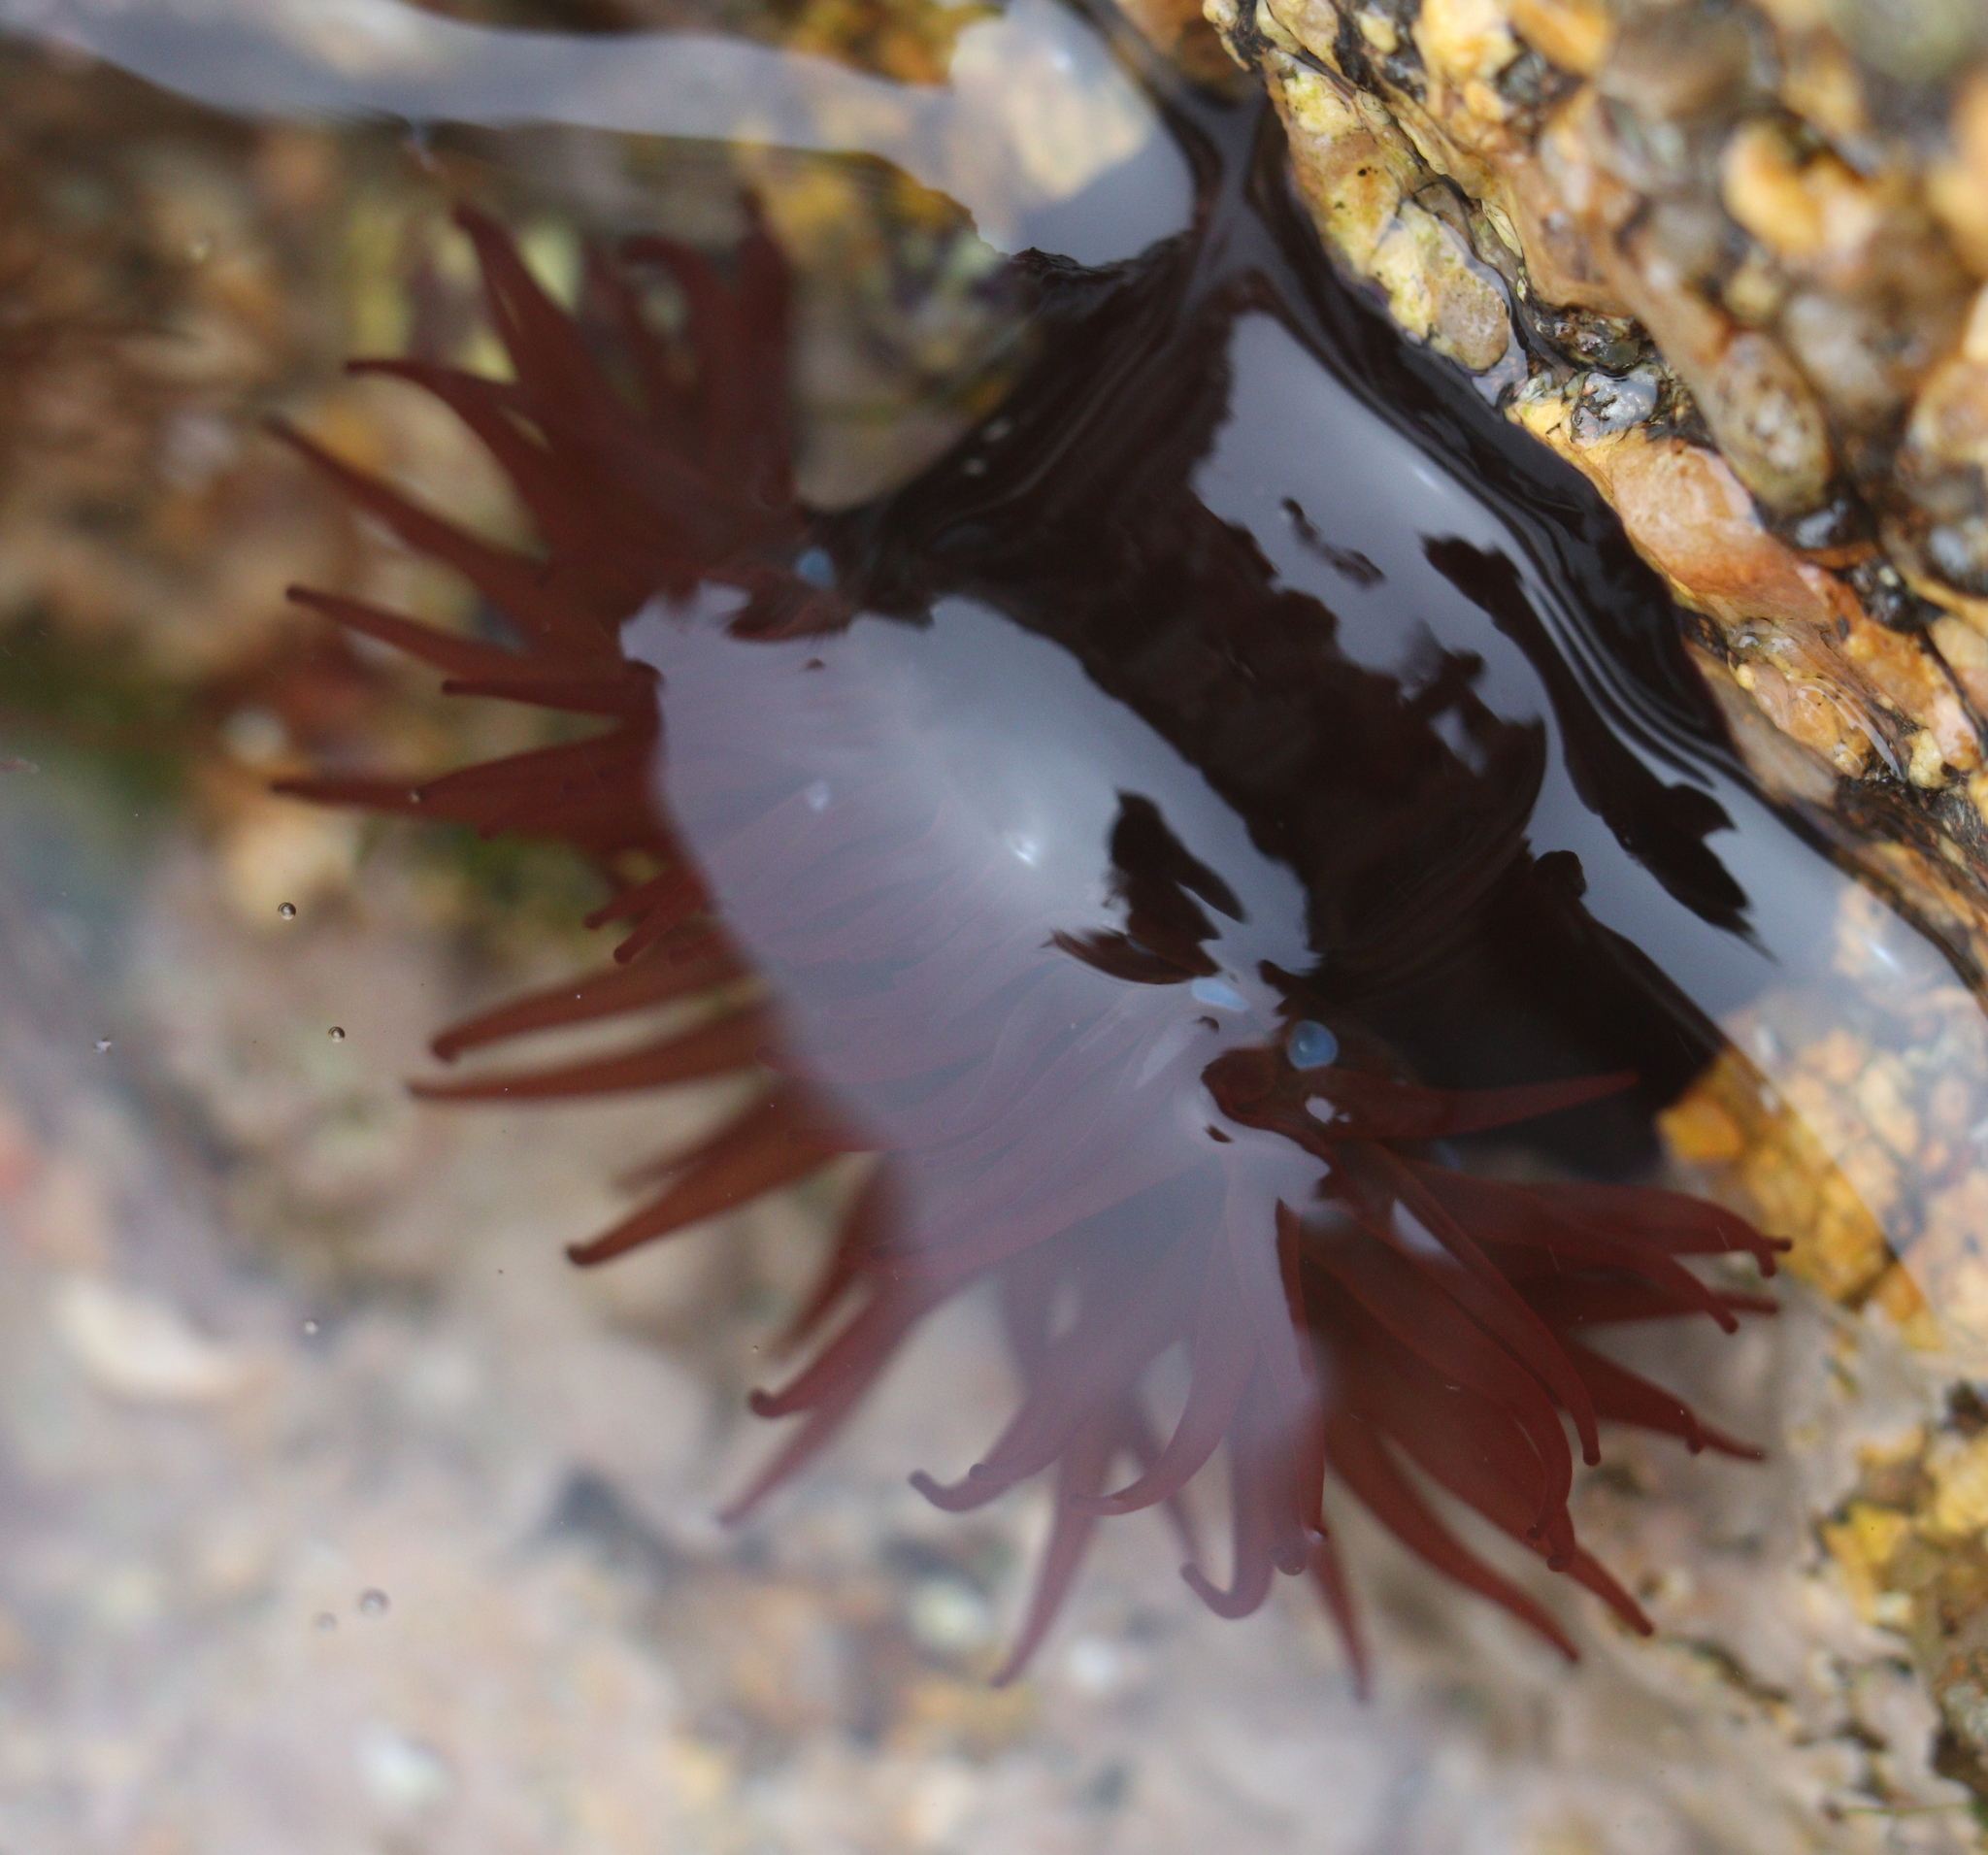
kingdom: Animalia
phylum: Cnidaria
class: Anthozoa
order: Actiniaria
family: Actiniidae
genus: Actinia
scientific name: Actinia equina
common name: Beadlet anemone
